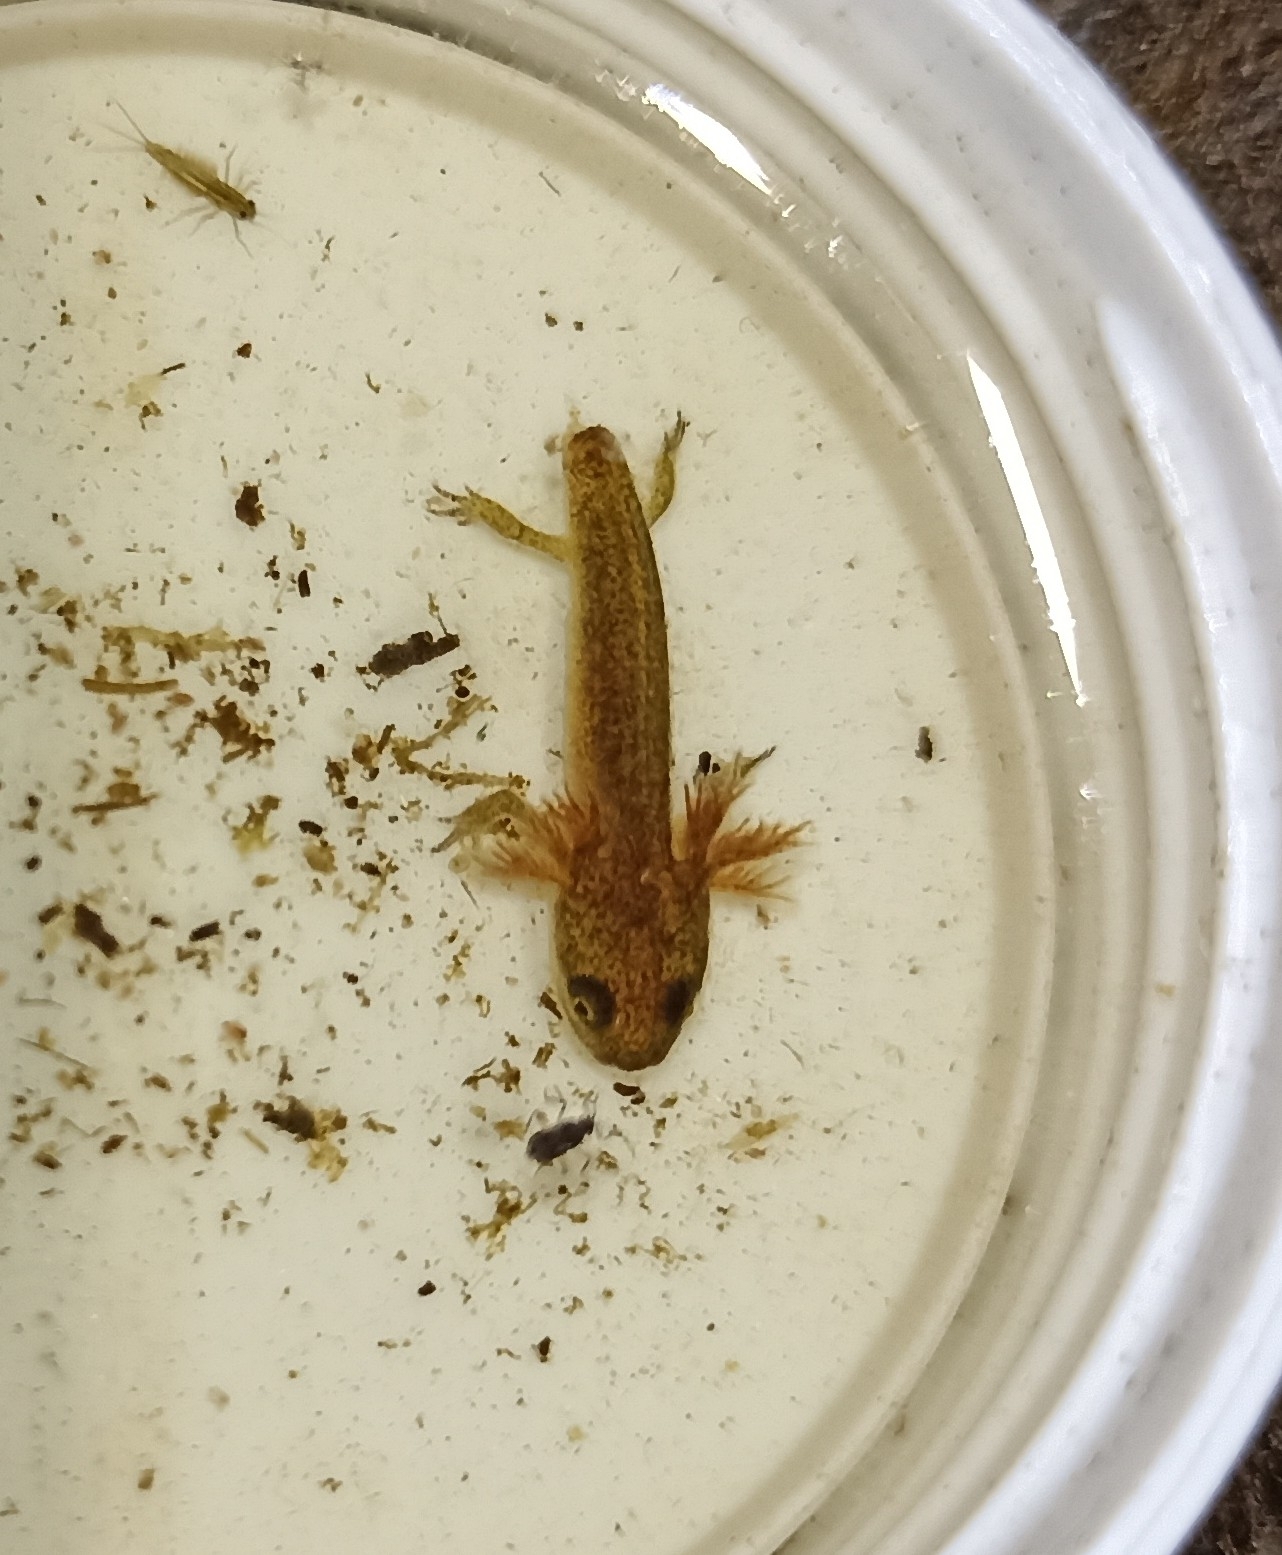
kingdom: Animalia
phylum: Chordata
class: Amphibia
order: Caudata
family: Salamandridae
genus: Lissotriton
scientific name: Lissotriton helveticus
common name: Palmate newt
